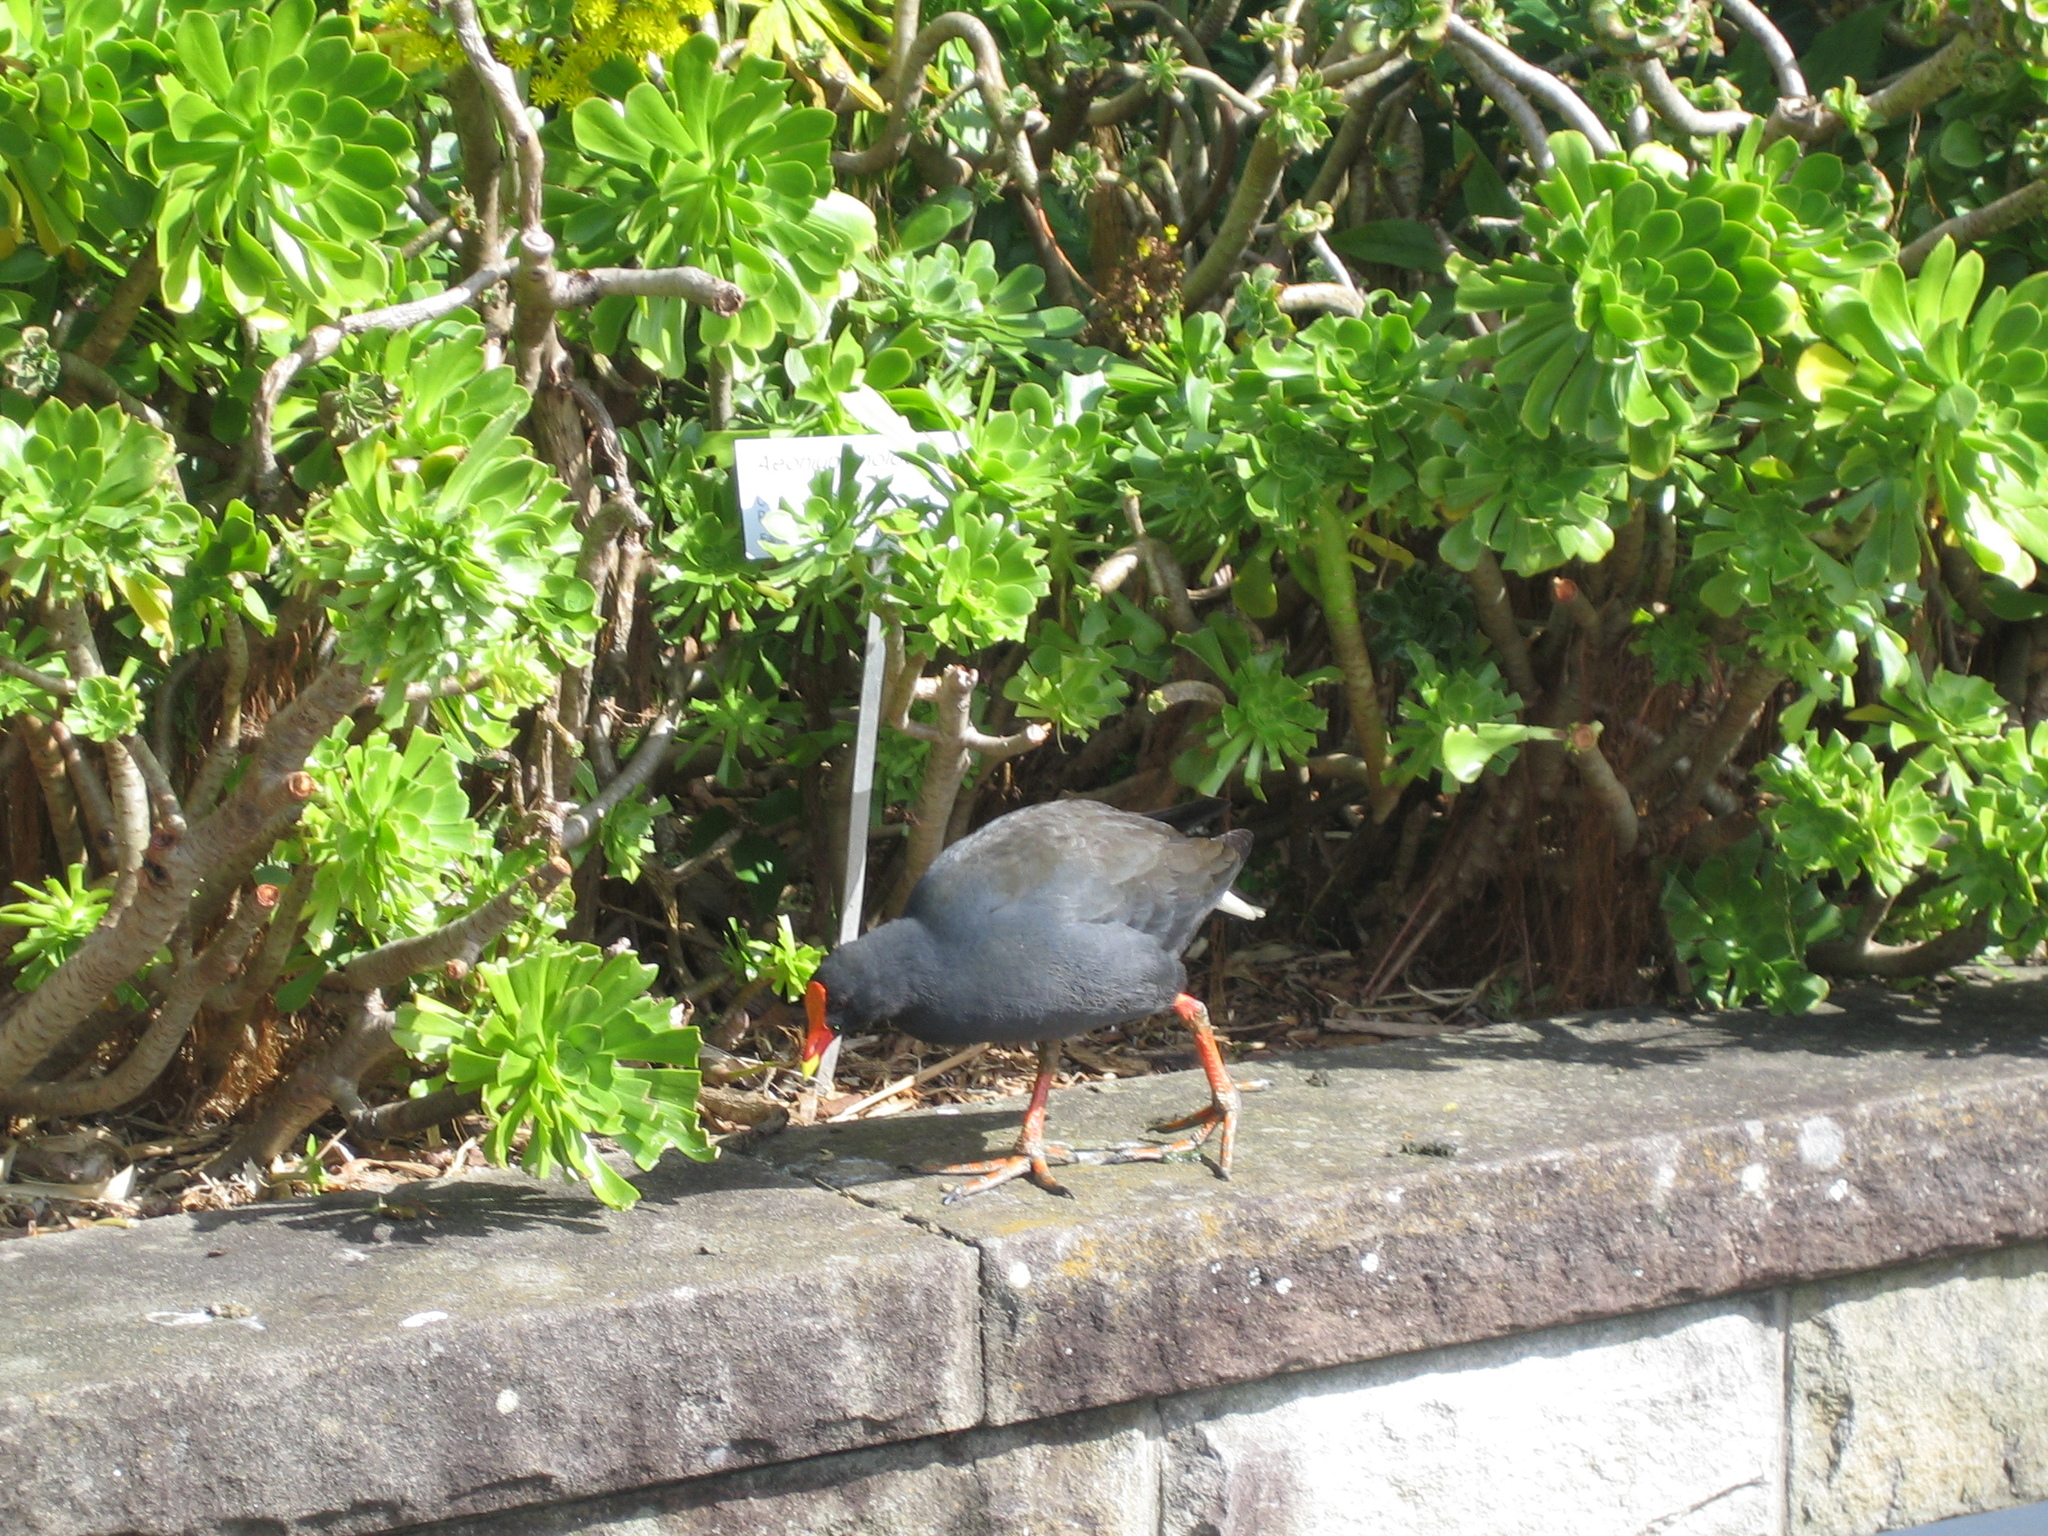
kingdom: Animalia
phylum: Chordata
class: Aves
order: Gruiformes
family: Rallidae
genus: Gallinula
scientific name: Gallinula tenebrosa
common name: Dusky moorhen
